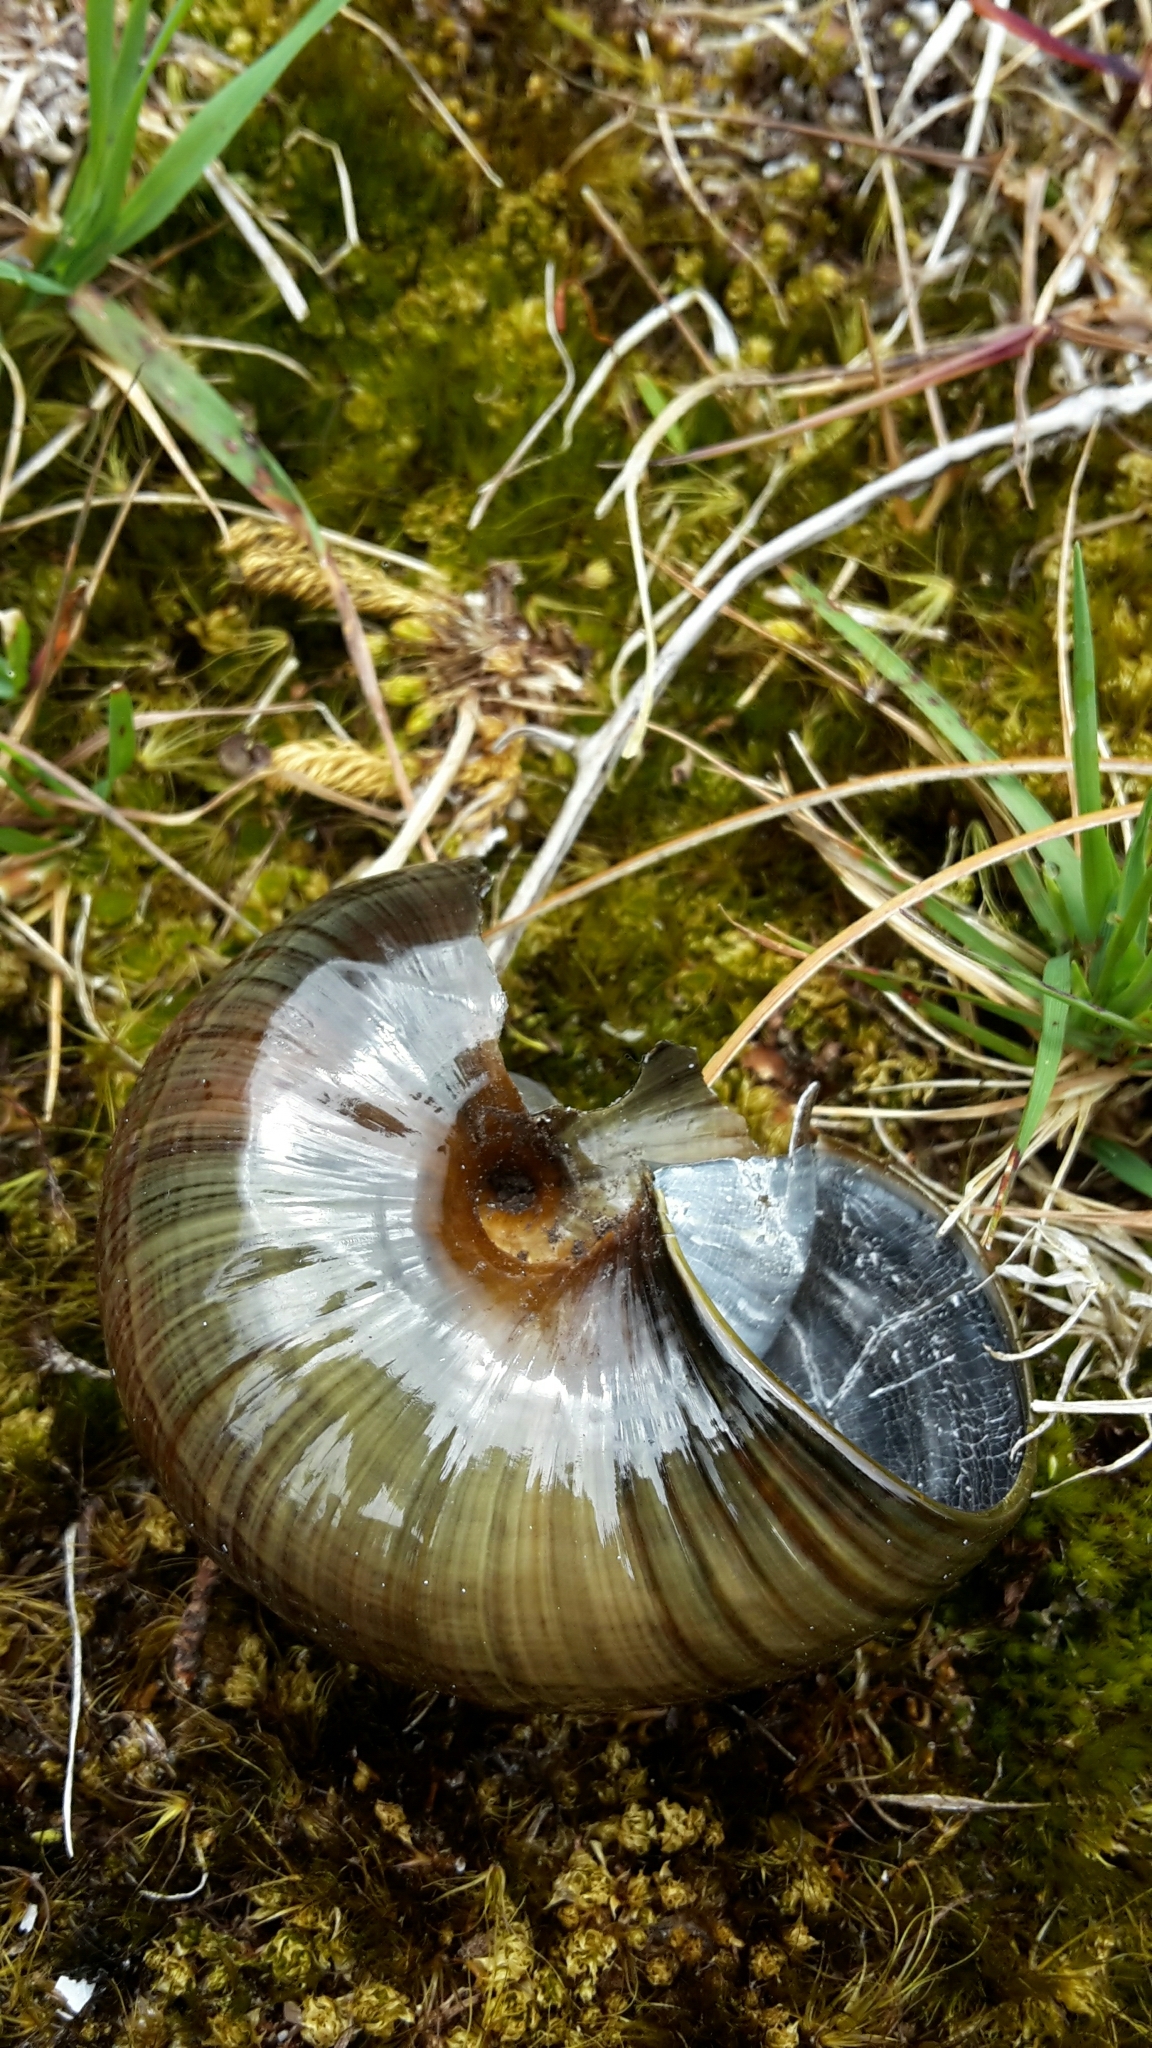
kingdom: Animalia
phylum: Mollusca
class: Gastropoda
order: Stylommatophora
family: Rhytididae
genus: Powelliphanta
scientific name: Powelliphanta marchanti
